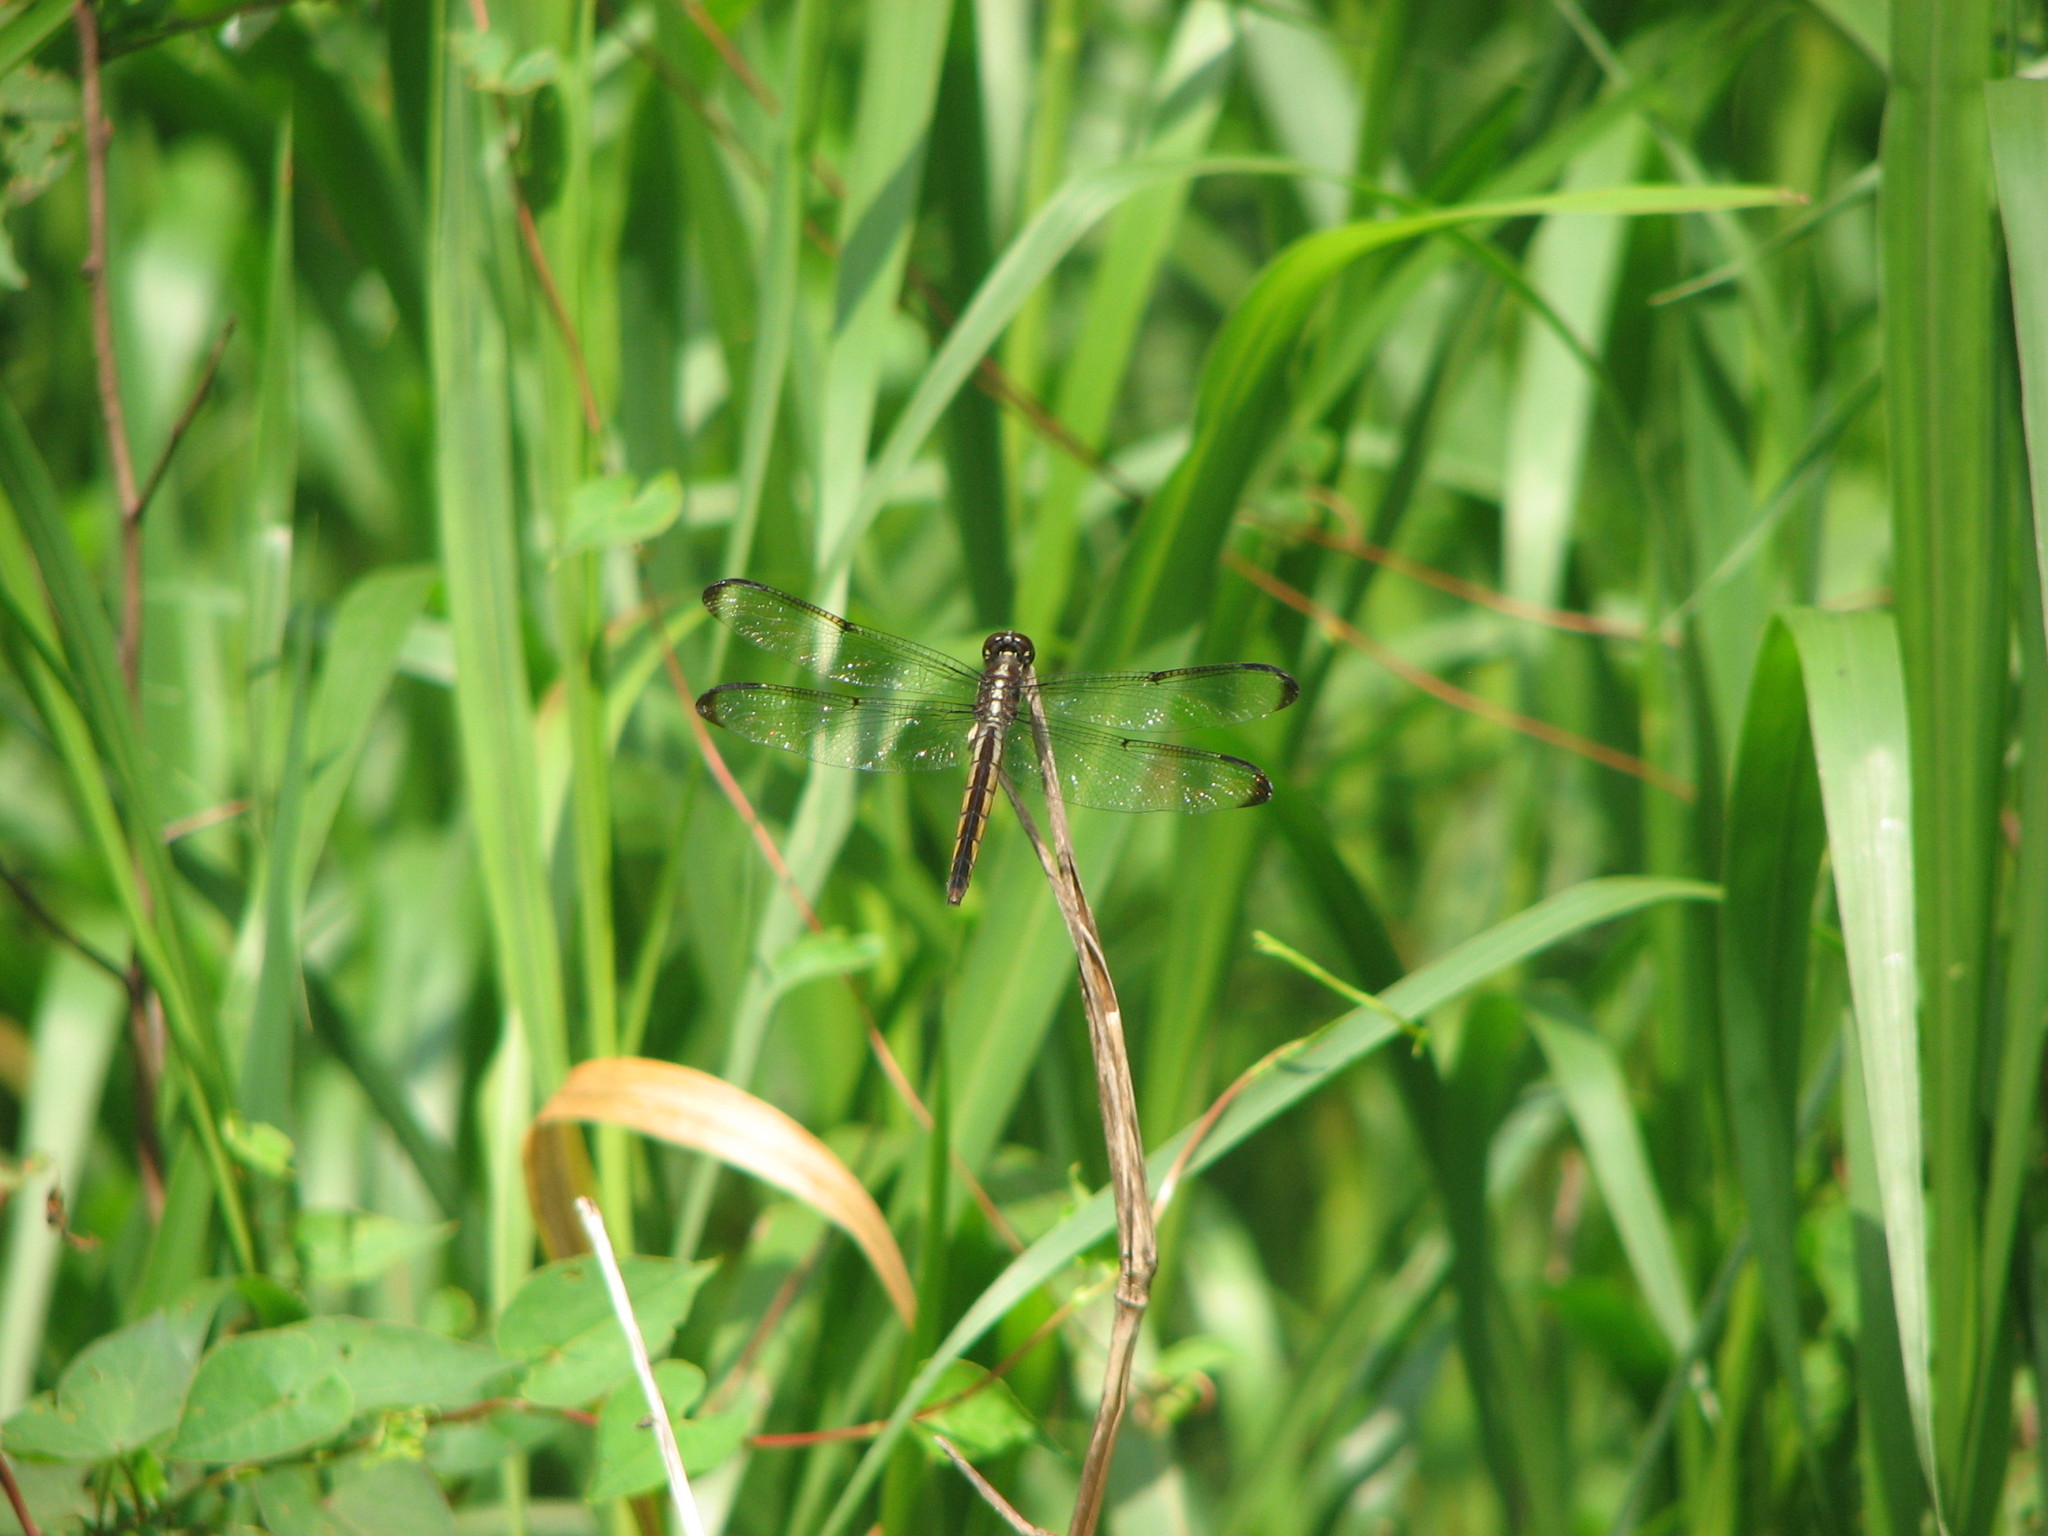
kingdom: Animalia
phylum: Arthropoda
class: Insecta
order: Odonata
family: Libellulidae
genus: Libellula
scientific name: Libellula incesta
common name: Slaty skimmer
